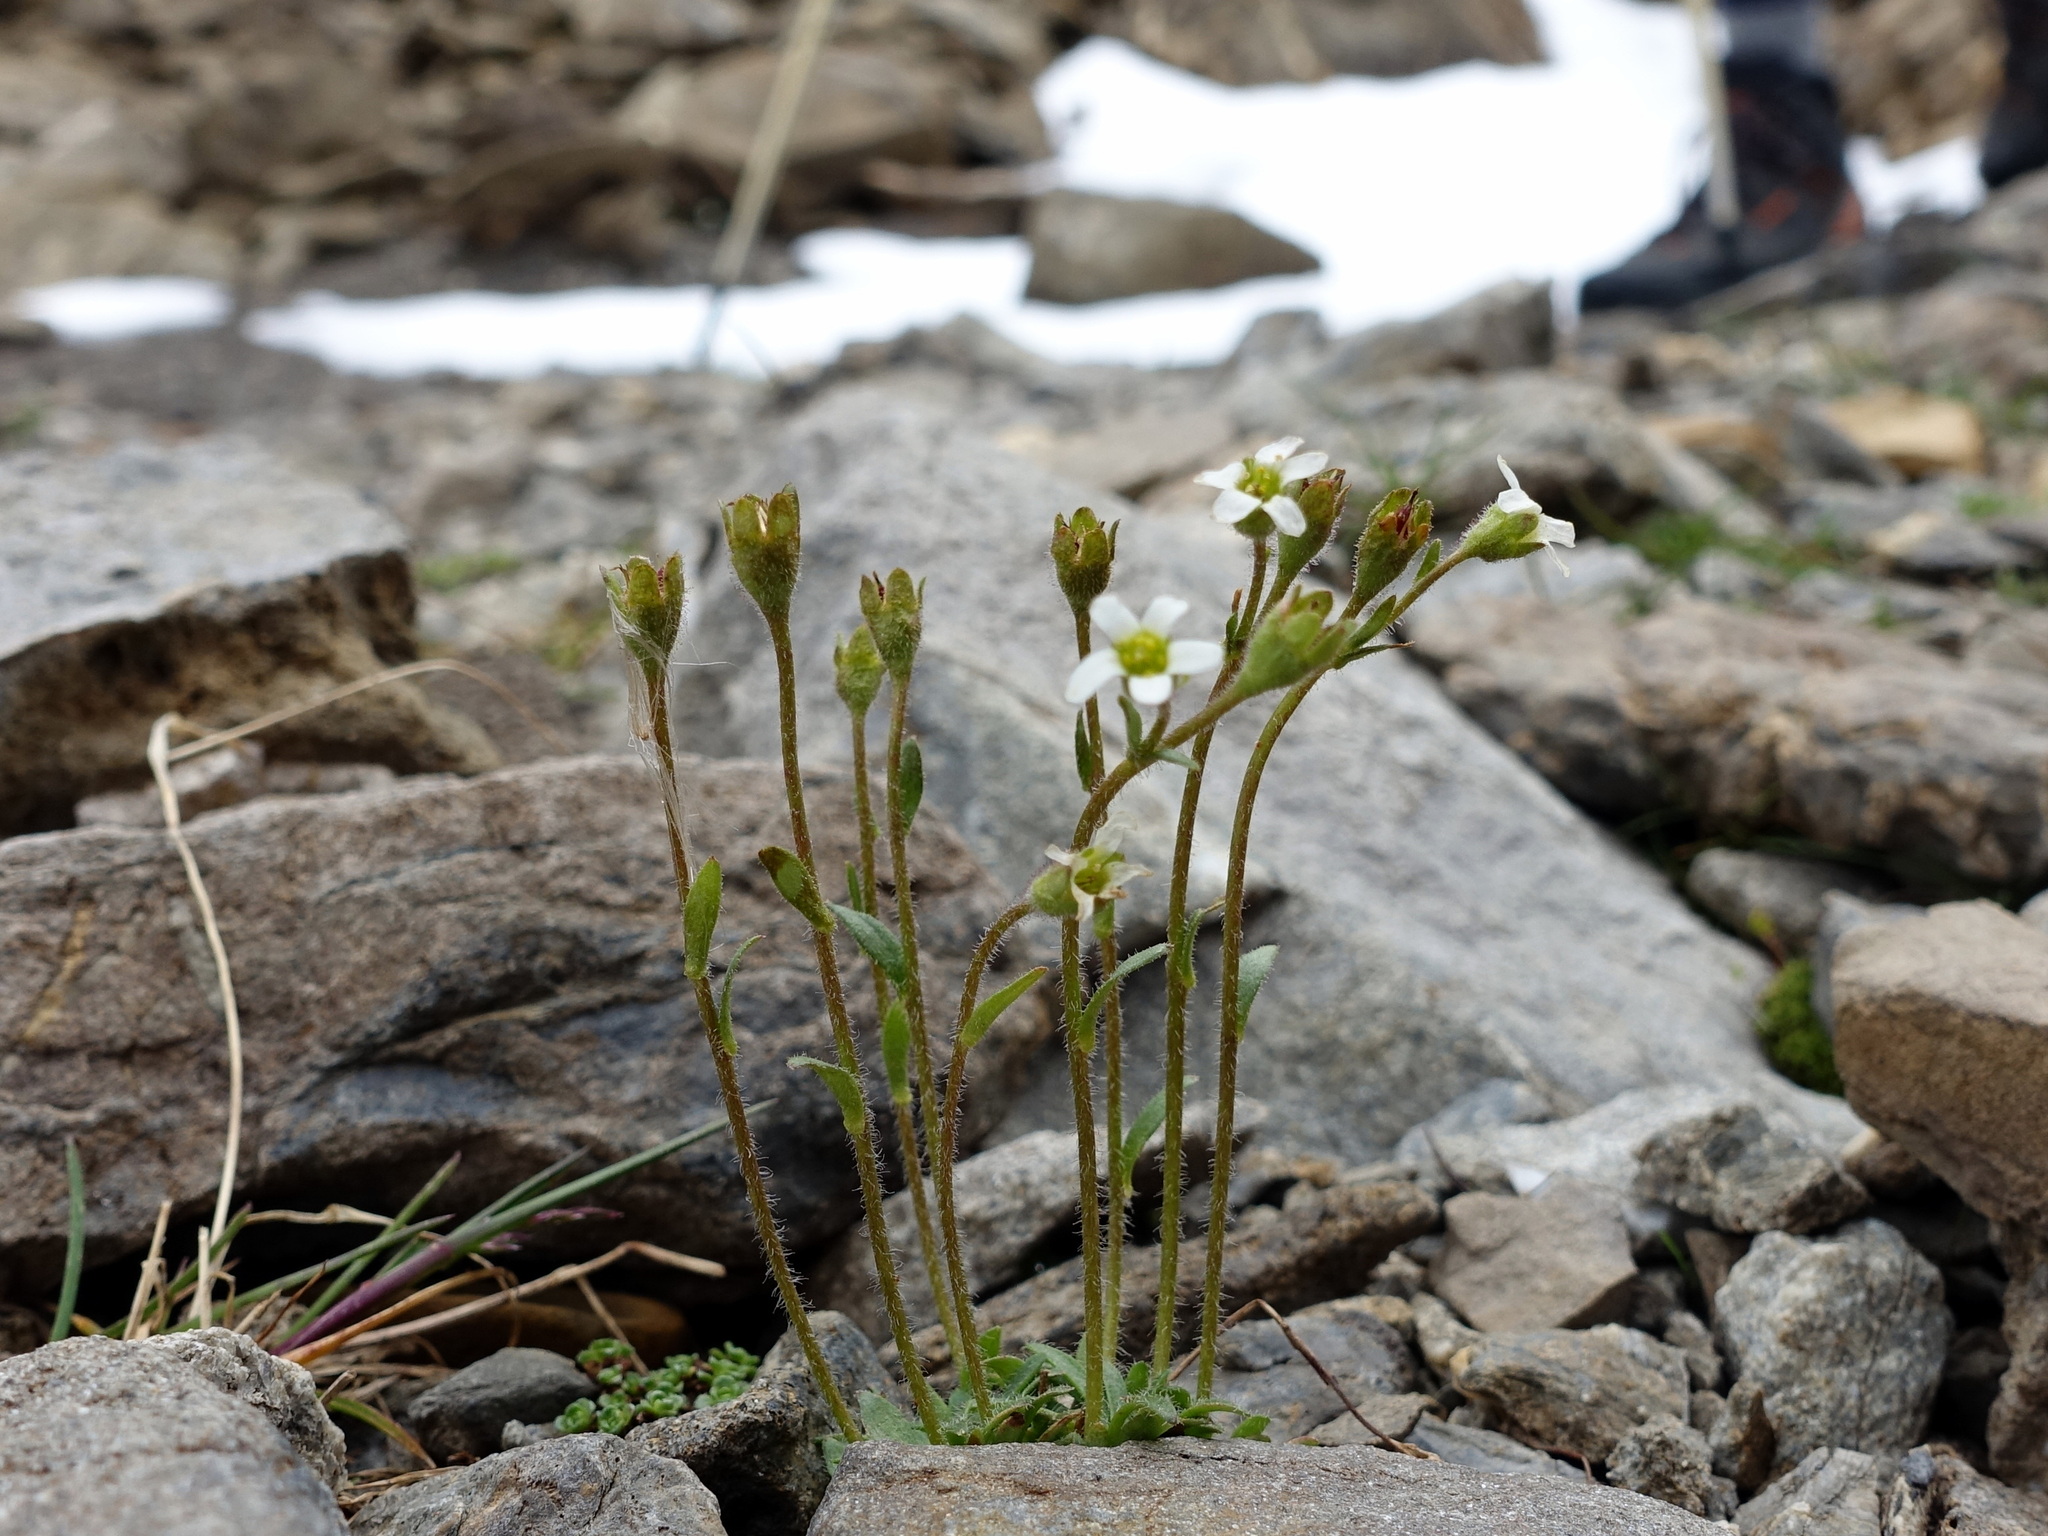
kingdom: Plantae
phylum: Tracheophyta
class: Magnoliopsida
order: Saxifragales
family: Saxifragaceae
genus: Saxifraga
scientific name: Saxifraga androsacea
